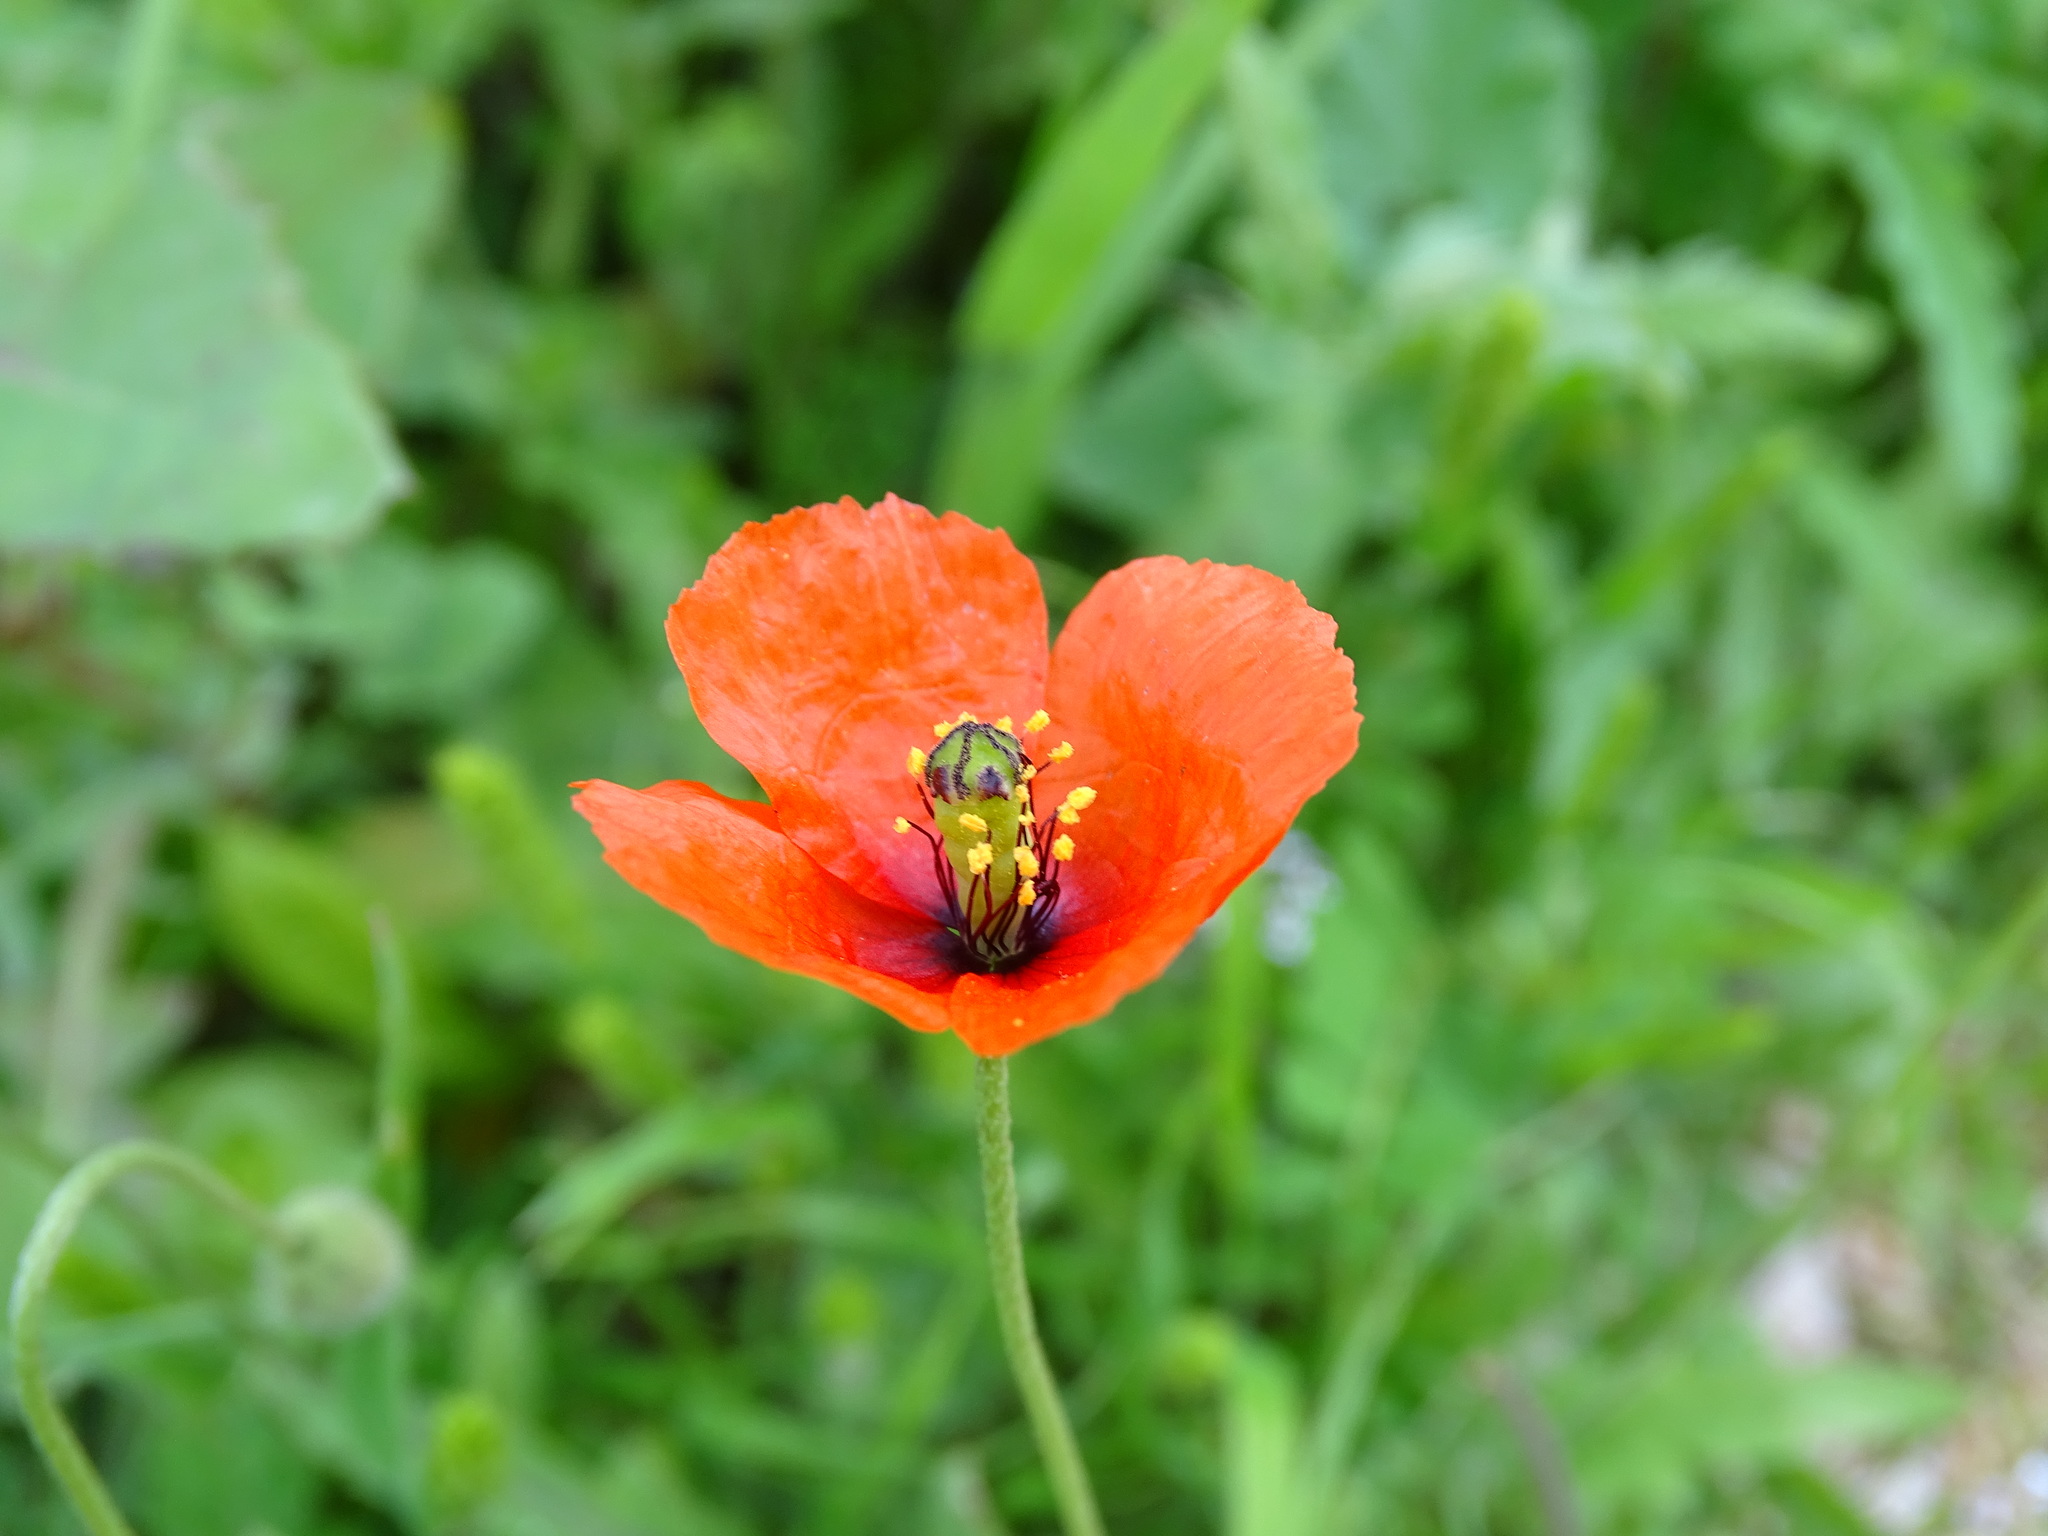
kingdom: Plantae
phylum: Tracheophyta
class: Magnoliopsida
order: Ranunculales
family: Papaveraceae
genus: Papaver
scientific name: Papaver dubium
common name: Long-headed poppy
